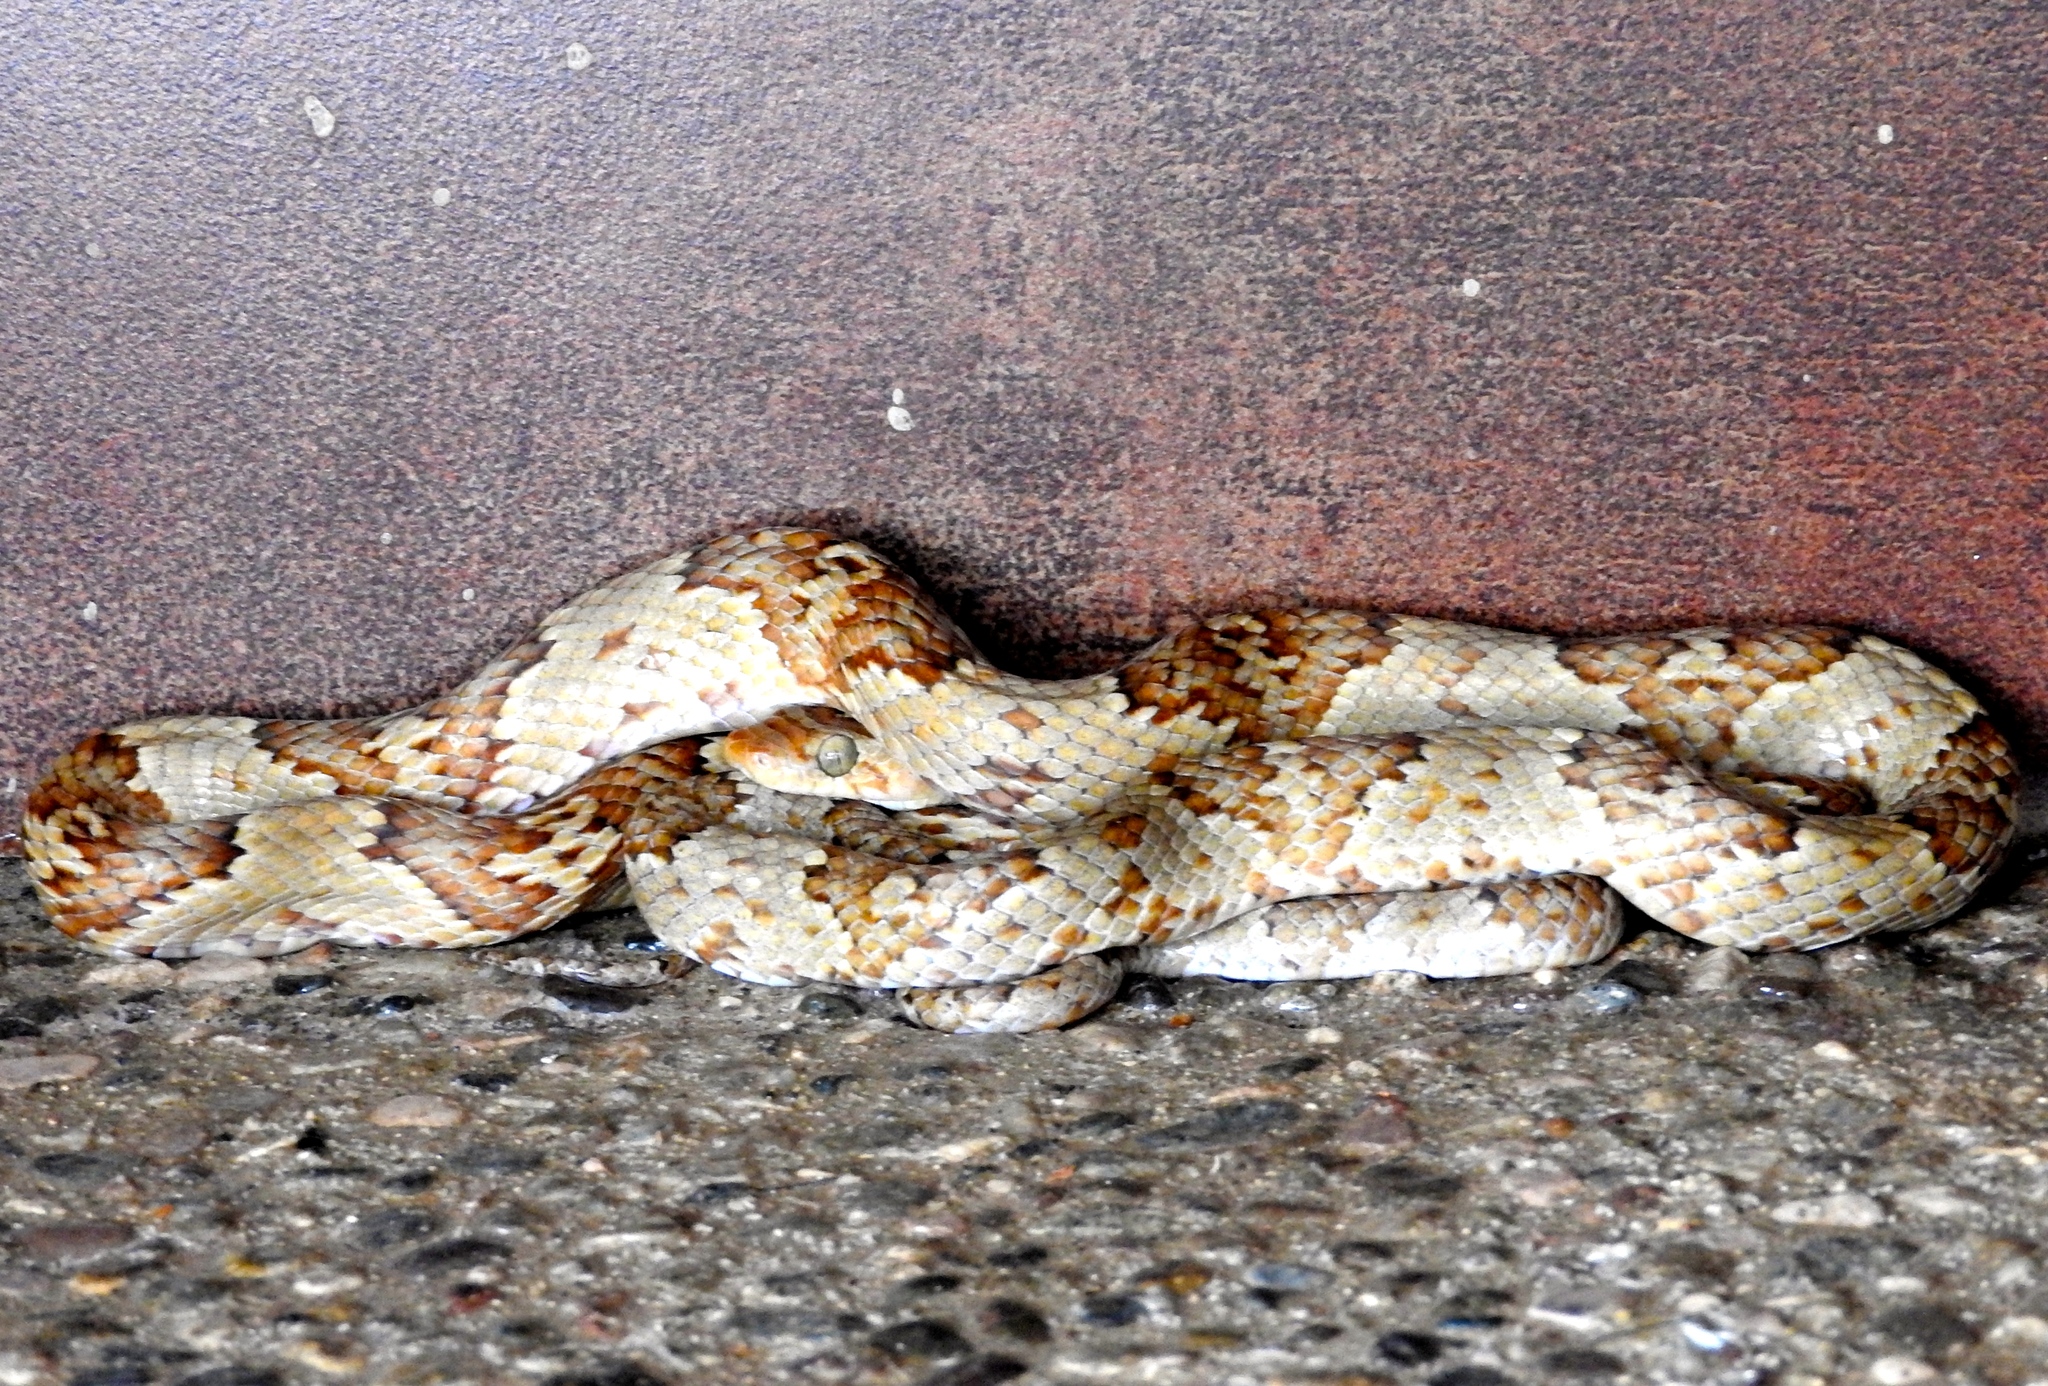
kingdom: Animalia
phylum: Chordata
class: Squamata
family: Colubridae
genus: Trimorphodon
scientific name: Trimorphodon paucimaculatus
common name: Sinaloan lyresnake
